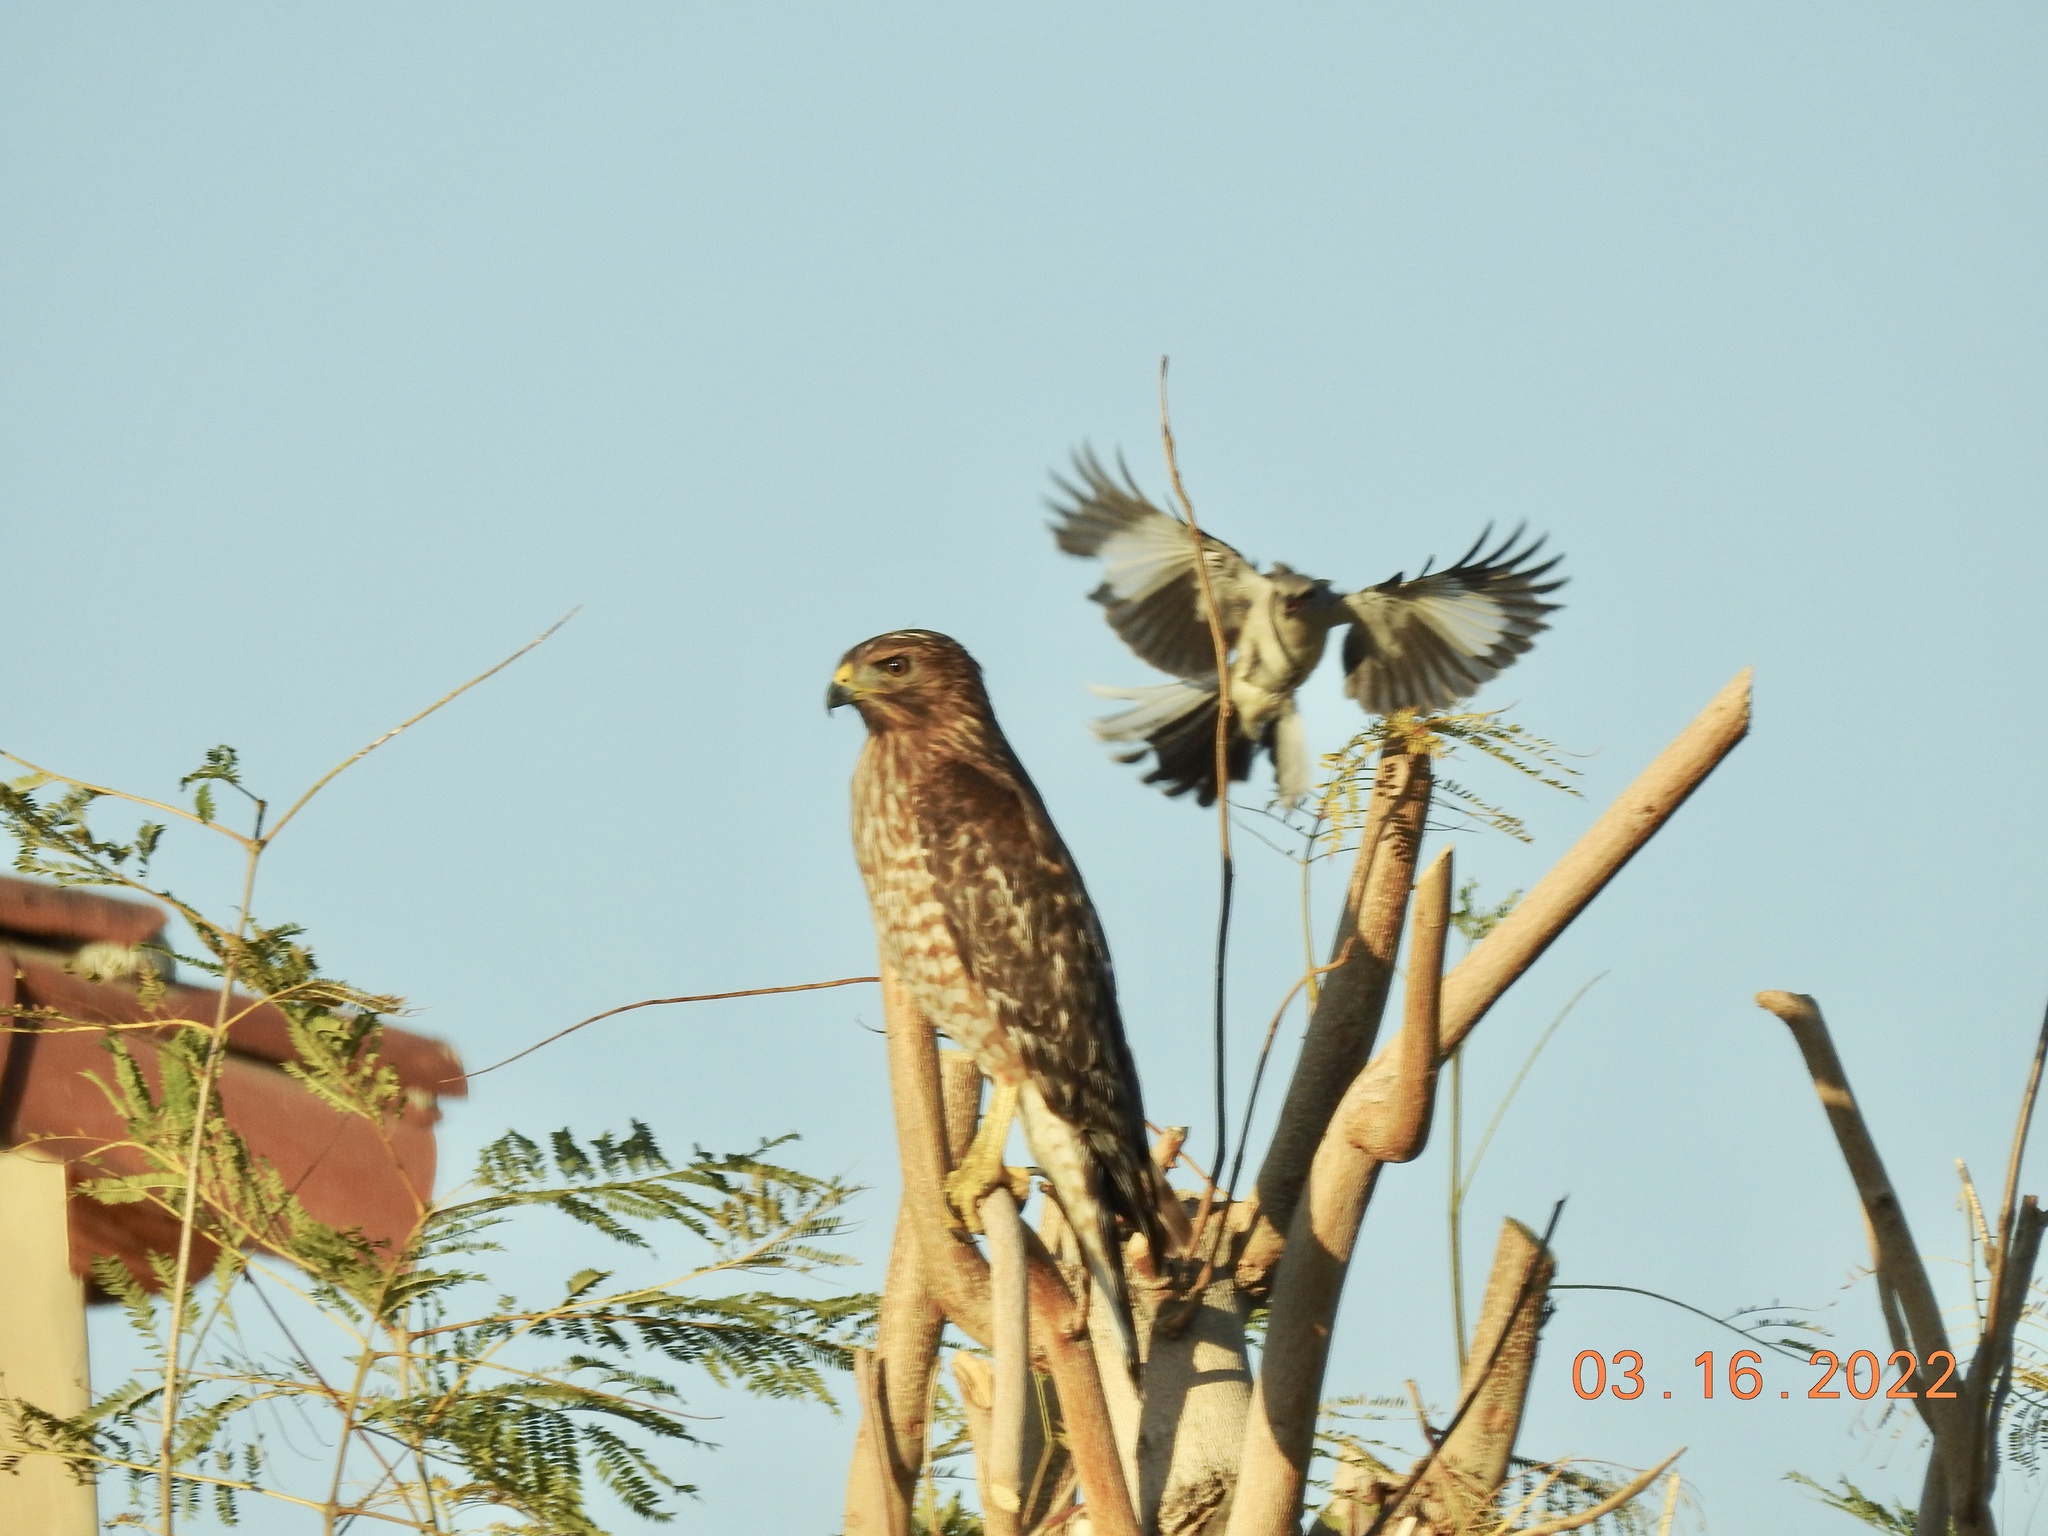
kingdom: Animalia
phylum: Chordata
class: Aves
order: Accipitriformes
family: Accipitridae
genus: Buteo
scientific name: Buteo lineatus
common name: Red-shouldered hawk
